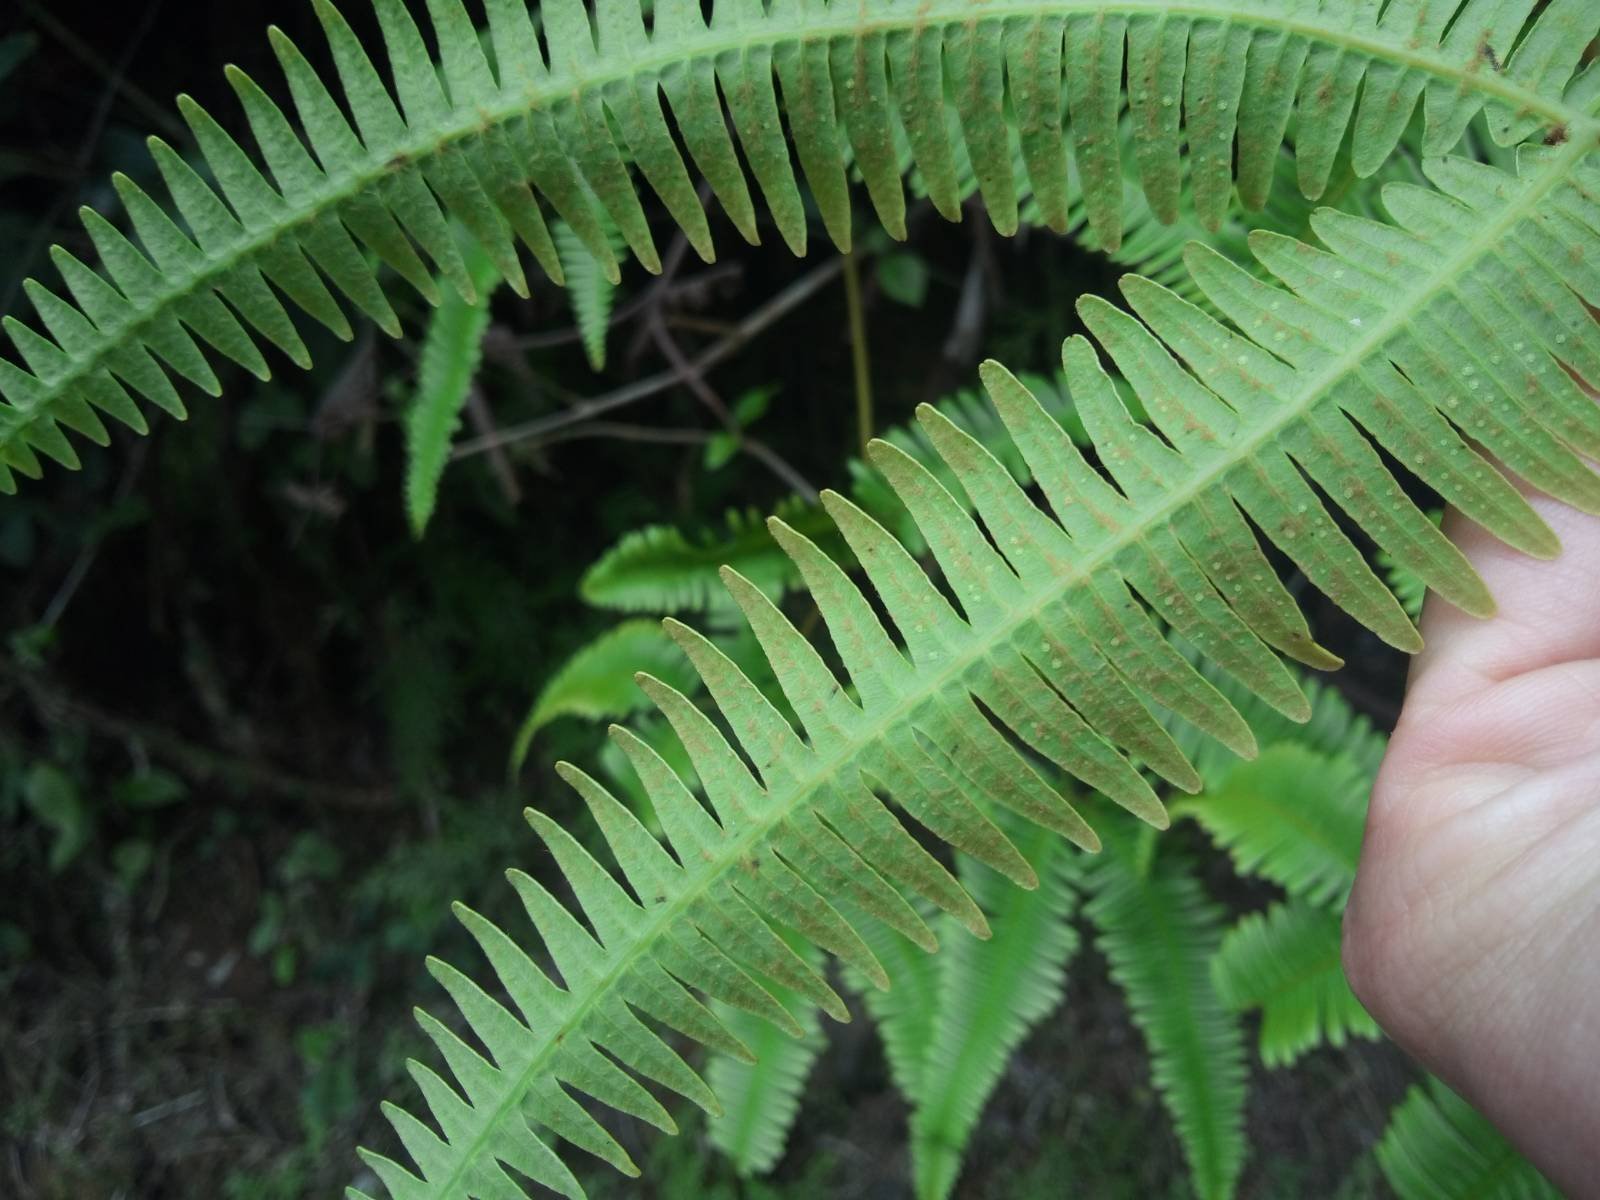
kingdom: Plantae
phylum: Tracheophyta
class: Polypodiopsida
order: Gleicheniales
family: Gleicheniaceae
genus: Dicranopteris
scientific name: Dicranopteris linearis
